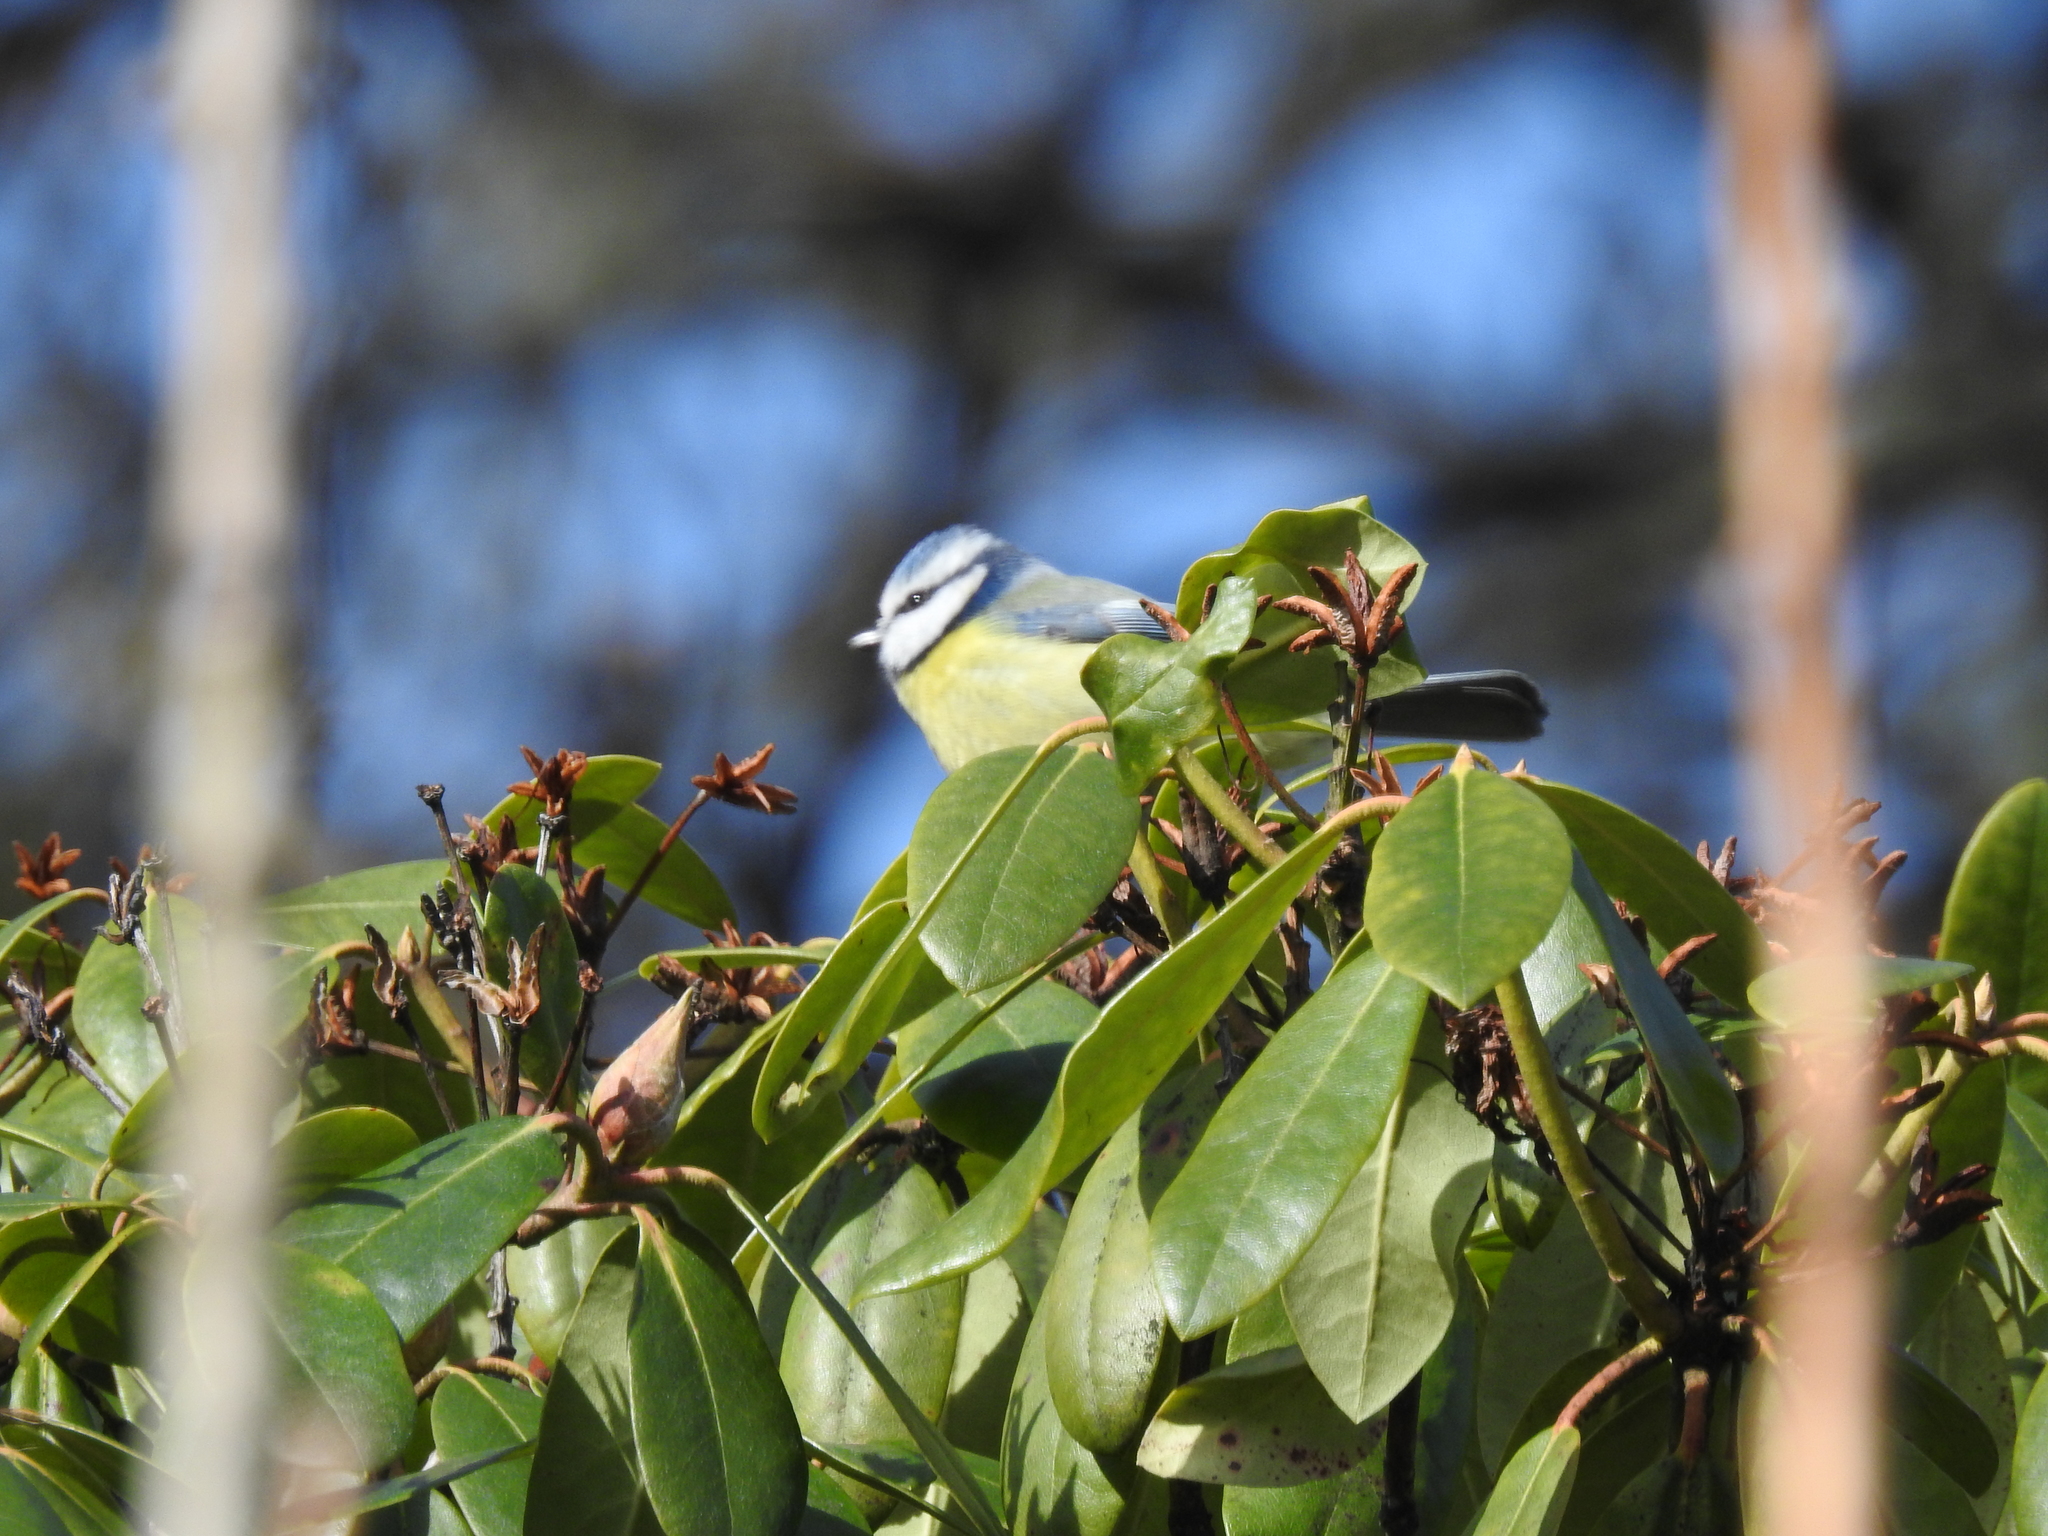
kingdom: Animalia
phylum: Chordata
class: Aves
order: Passeriformes
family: Paridae
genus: Cyanistes
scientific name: Cyanistes caeruleus
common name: Eurasian blue tit
